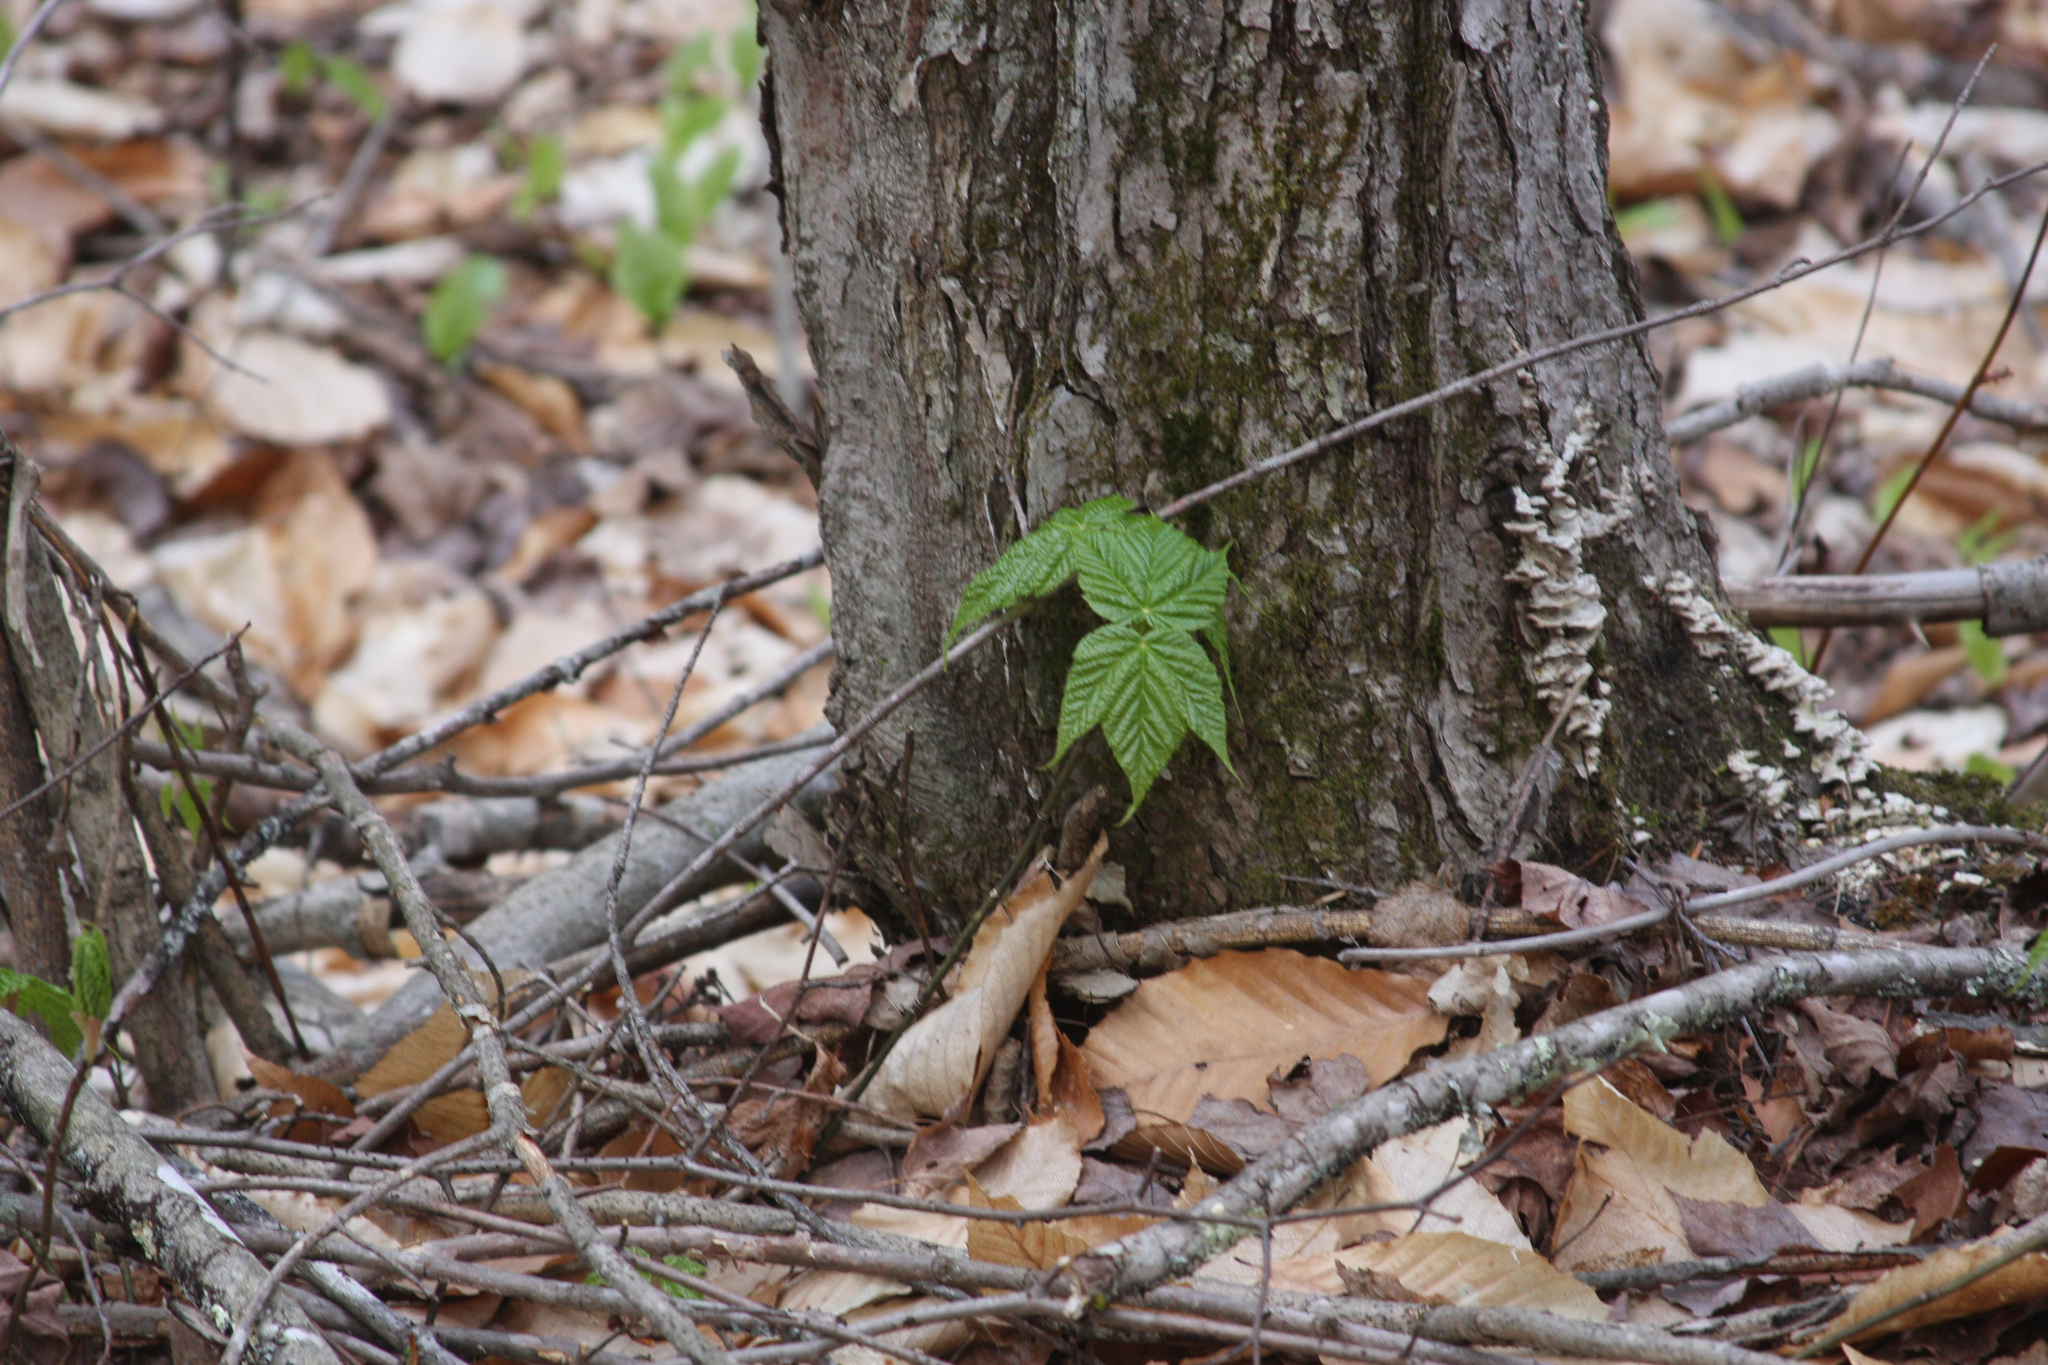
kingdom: Plantae
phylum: Tracheophyta
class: Magnoliopsida
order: Sapindales
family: Sapindaceae
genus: Acer
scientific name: Acer pensylvanicum
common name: Moosewood
